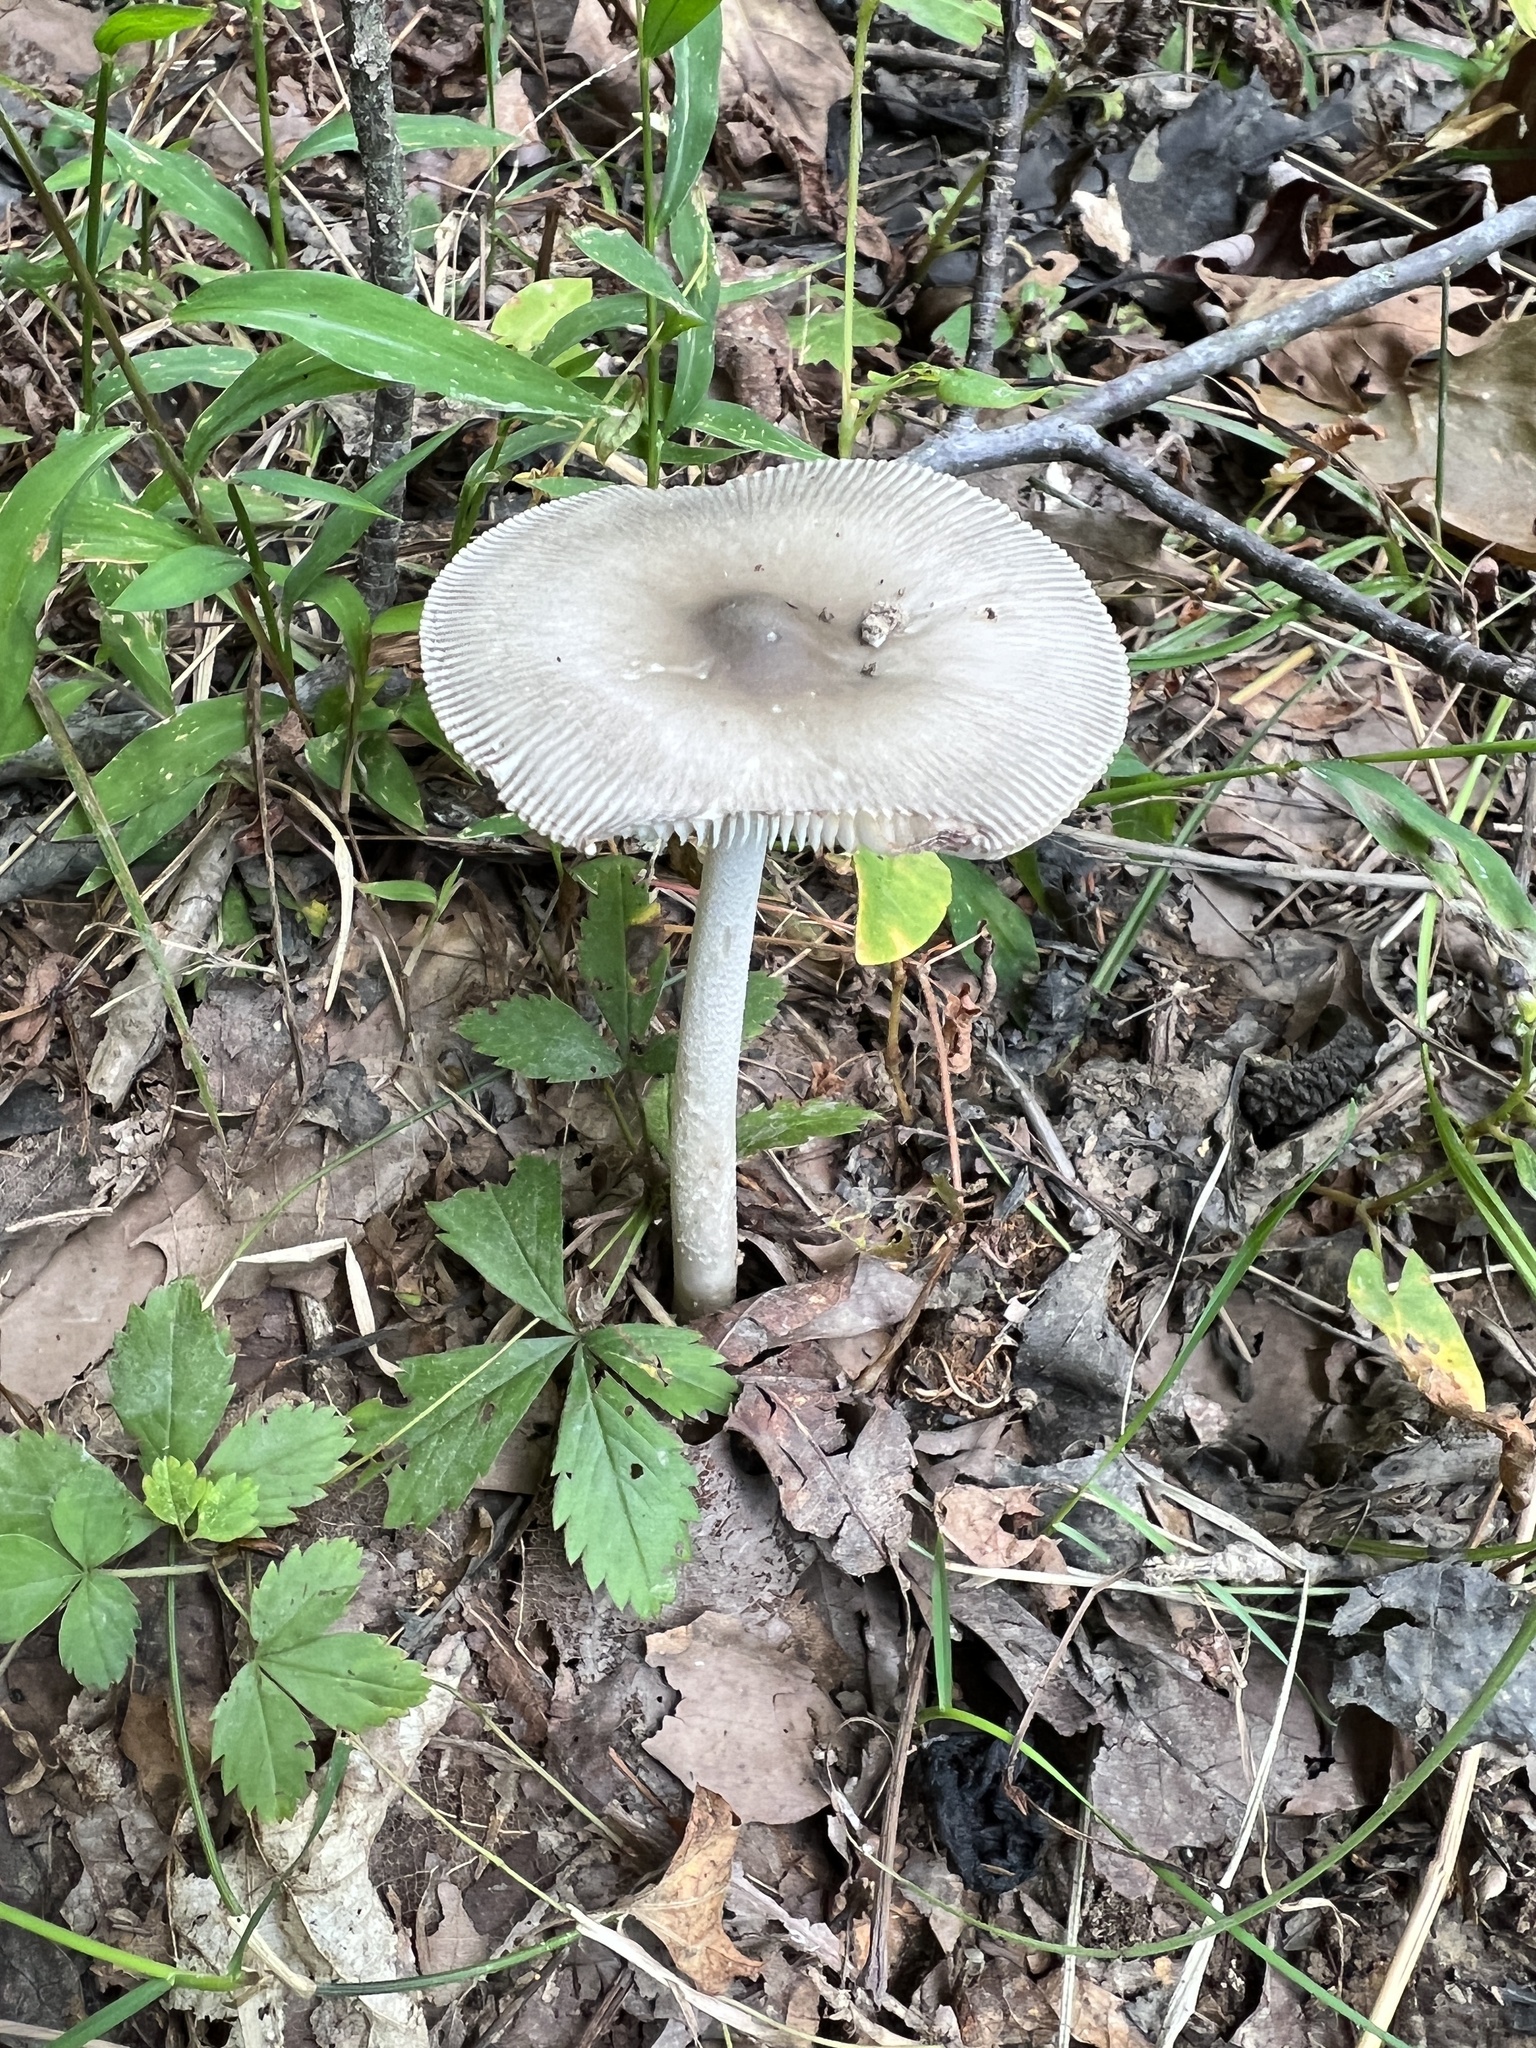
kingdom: Fungi
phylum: Basidiomycota
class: Agaricomycetes
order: Agaricales
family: Amanitaceae
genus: Amanita
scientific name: Amanita vaginata
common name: Grisette
